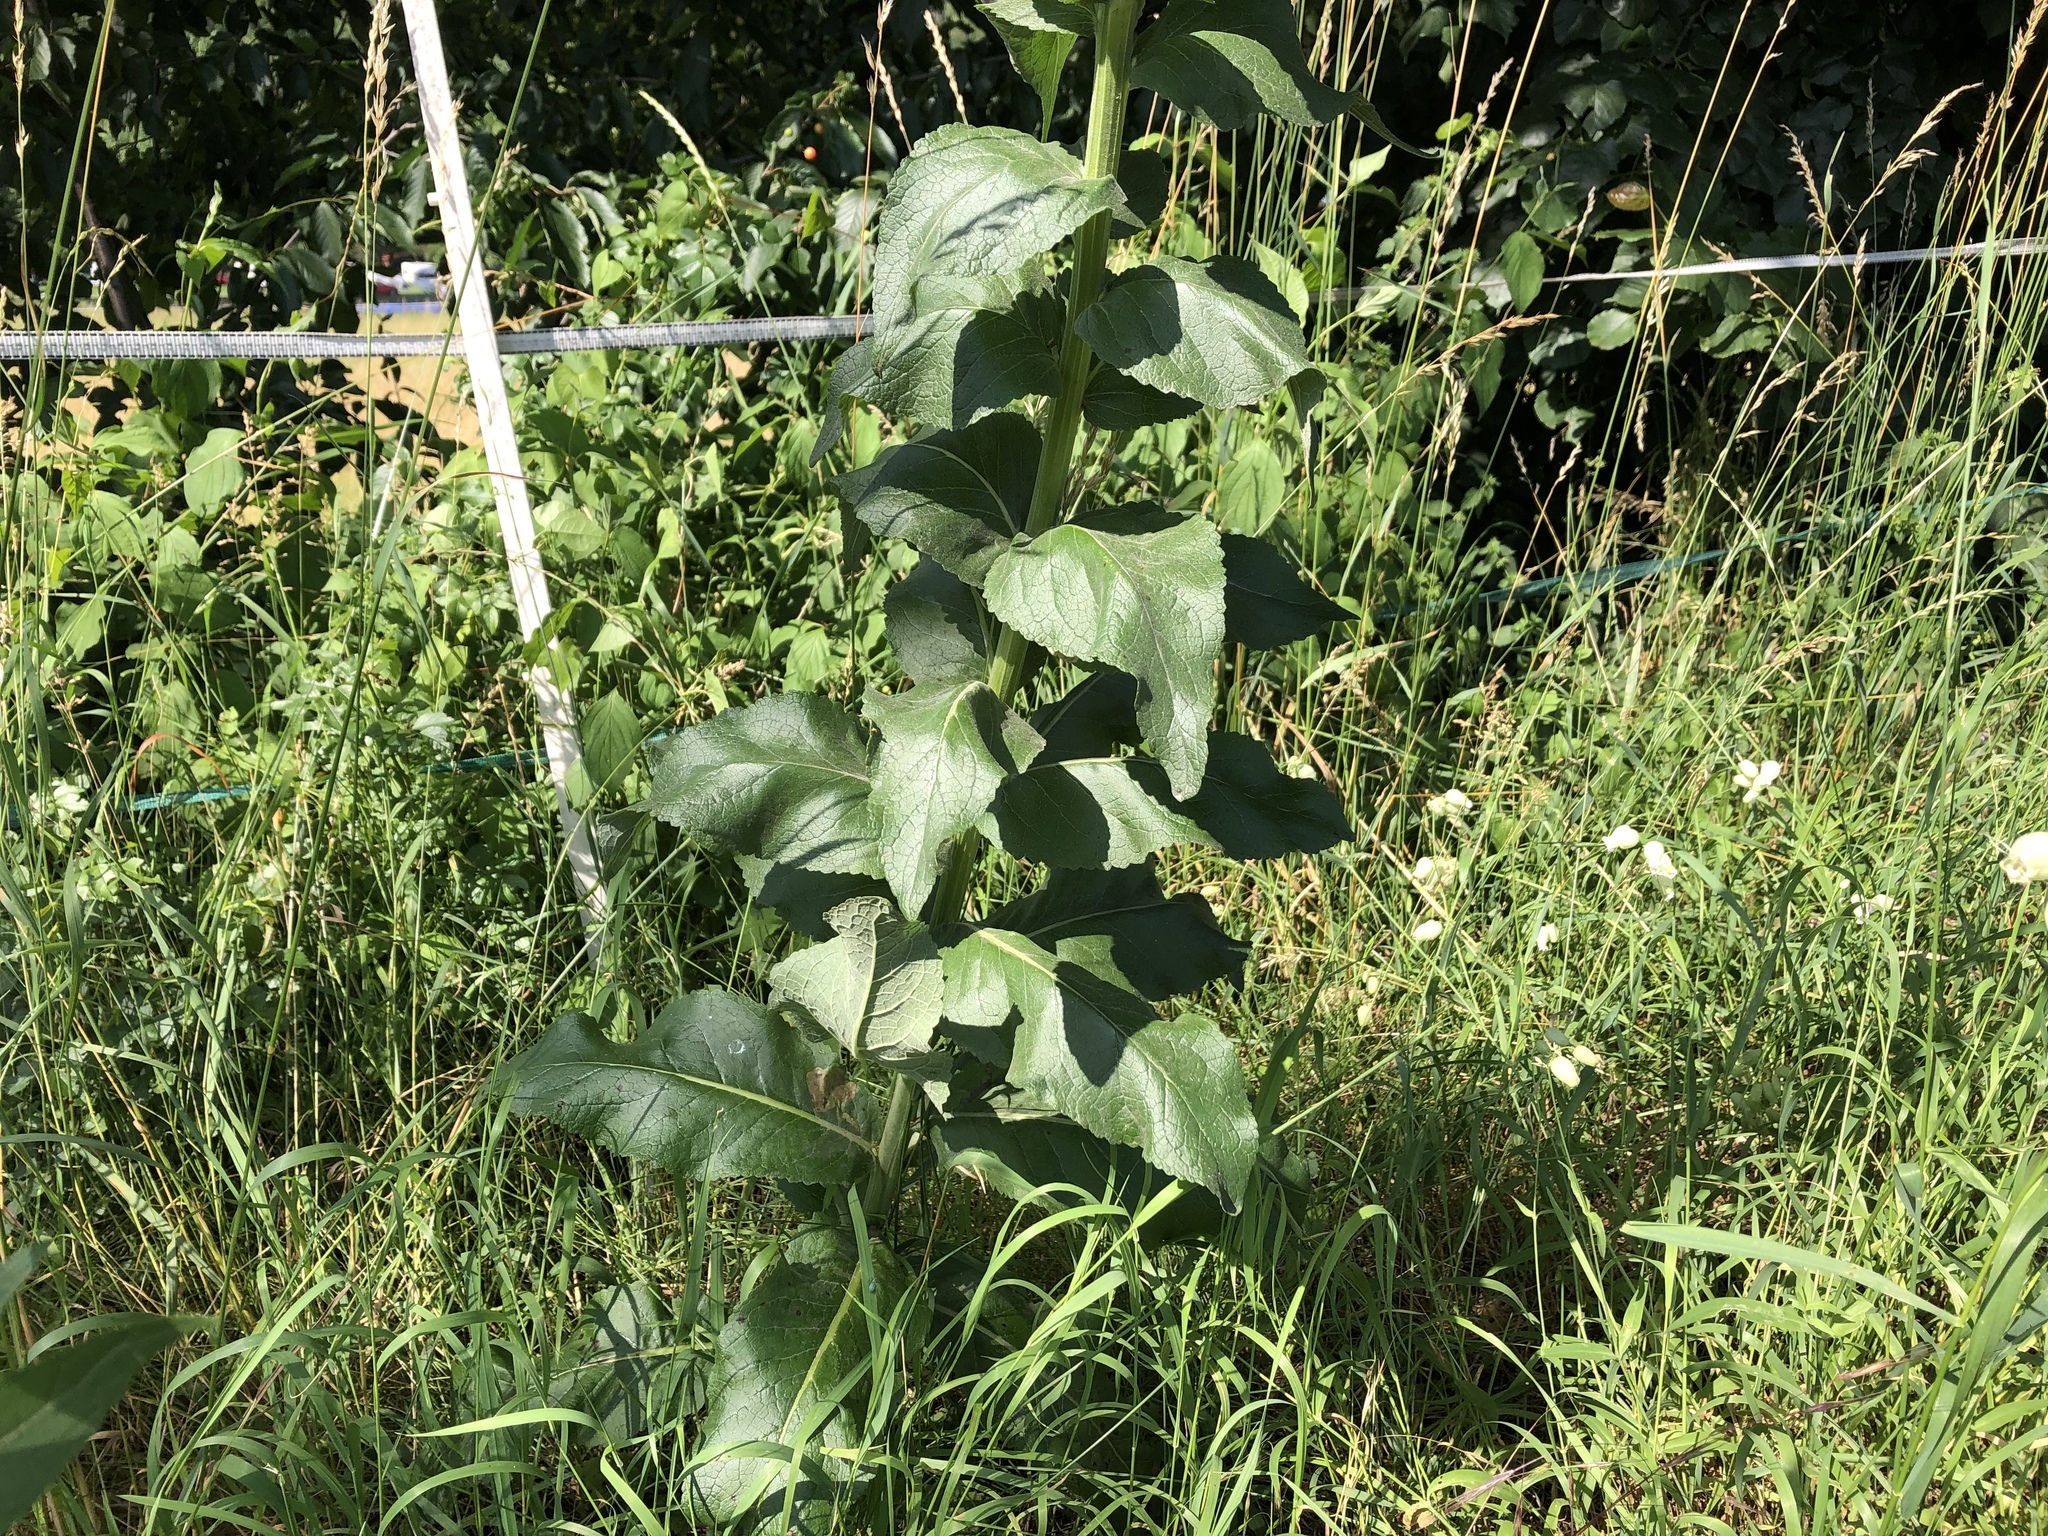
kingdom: Plantae
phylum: Tracheophyta
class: Magnoliopsida
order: Lamiales
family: Scrophulariaceae
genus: Verbascum
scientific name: Verbascum lychnitis
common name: White mullein
